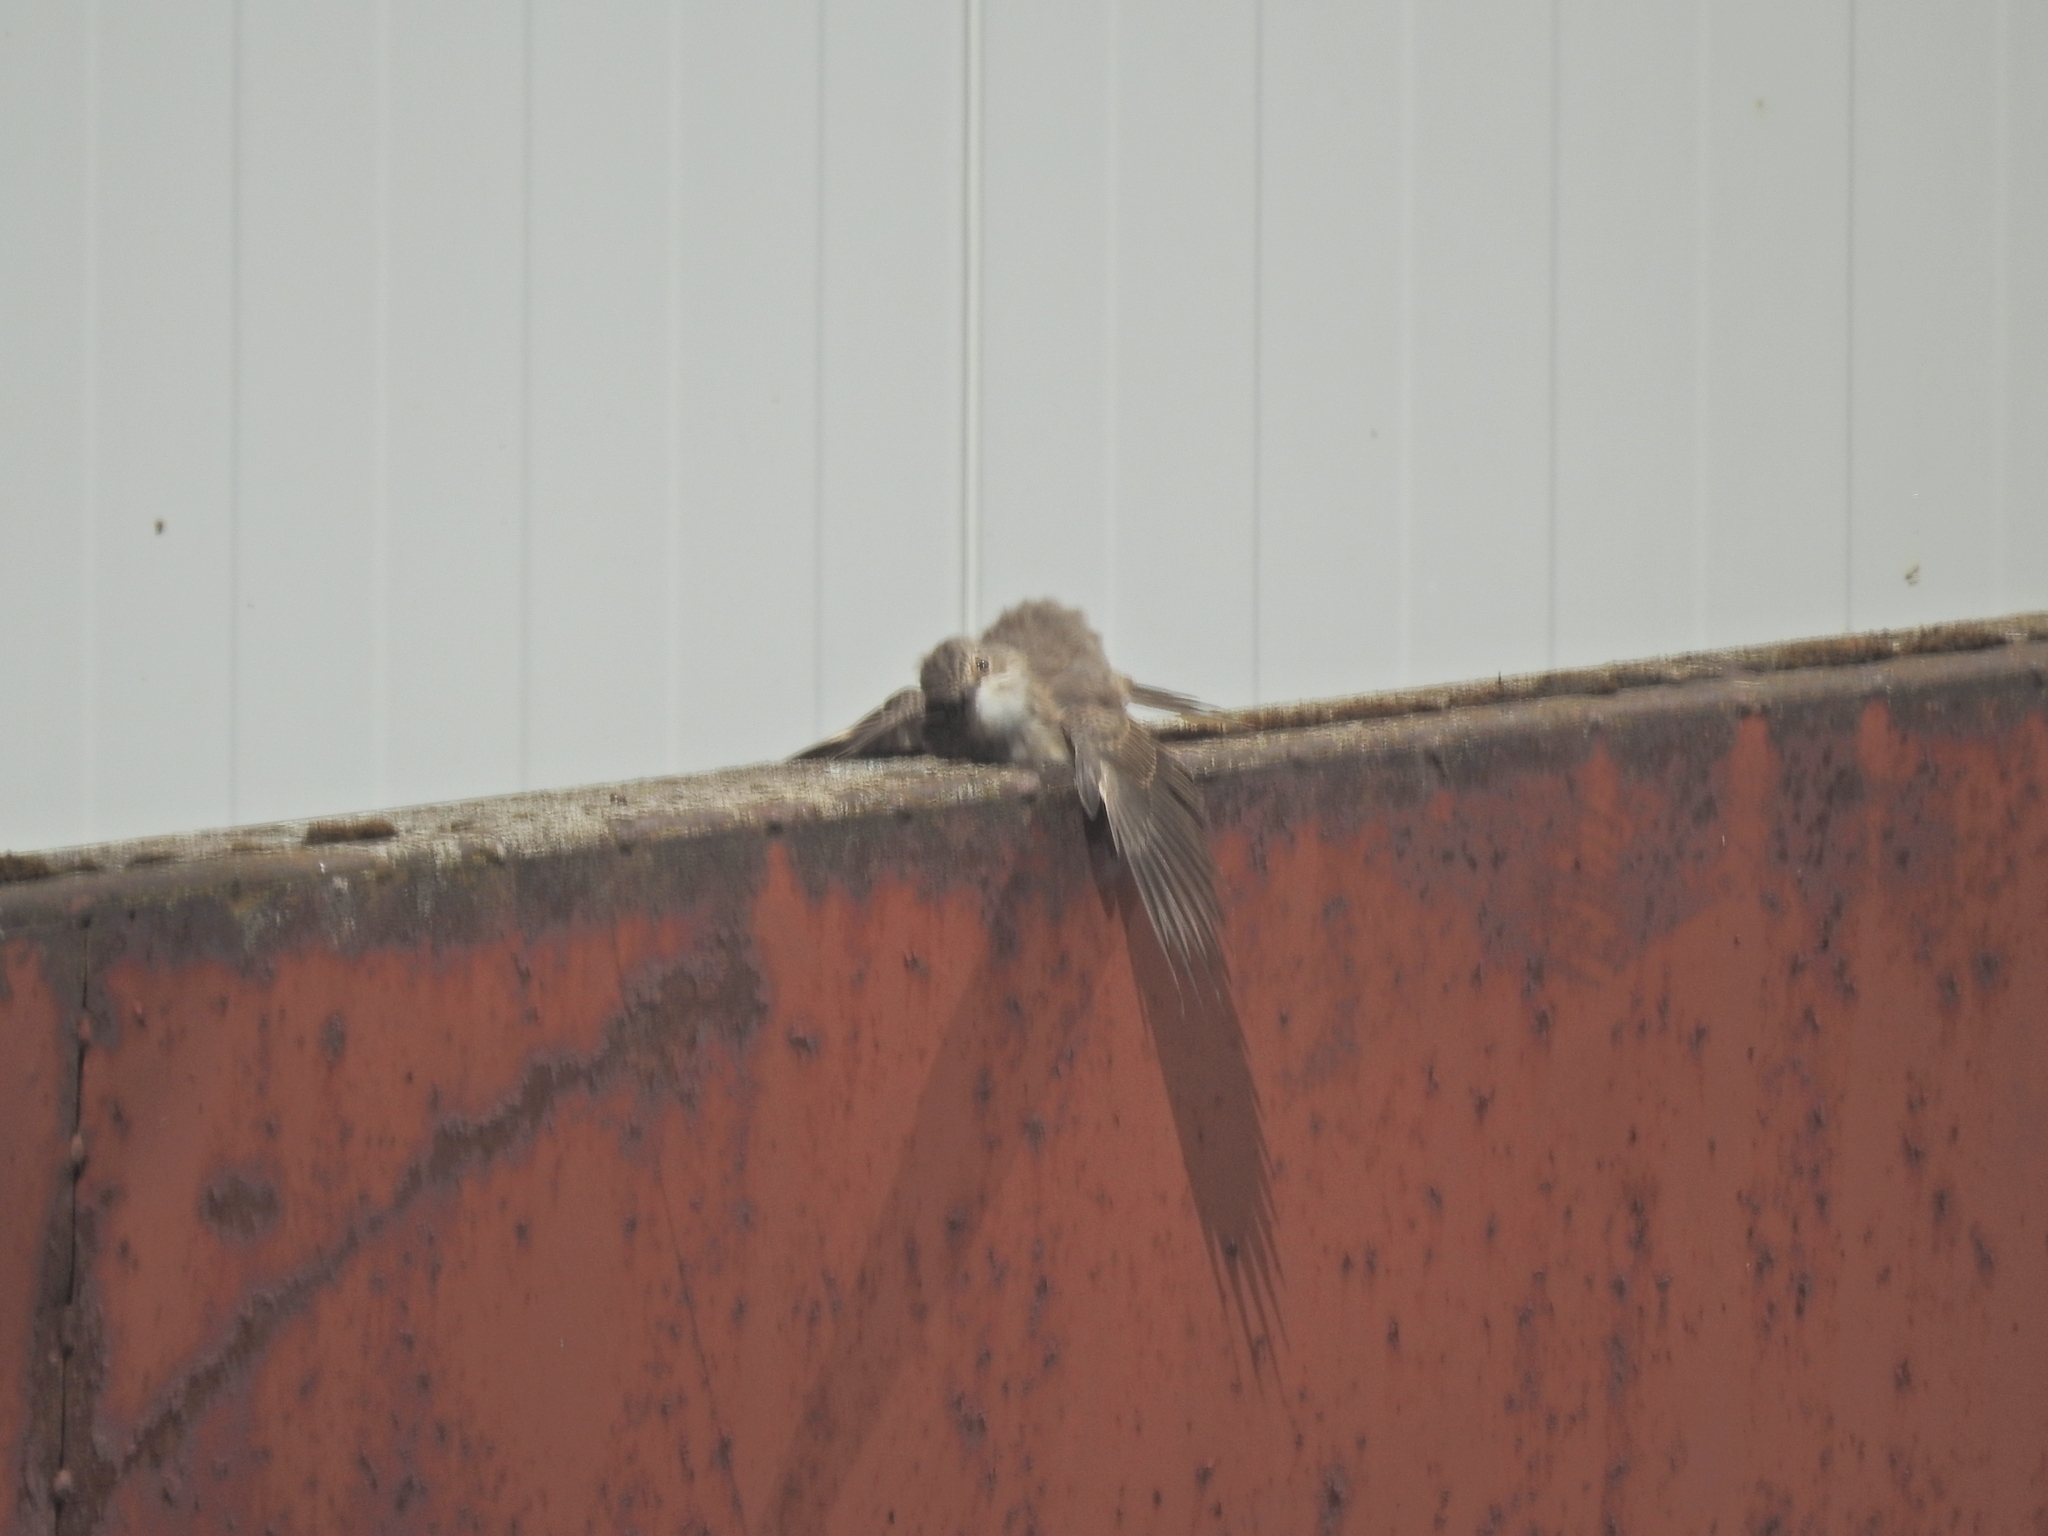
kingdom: Animalia
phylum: Chordata
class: Aves
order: Passeriformes
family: Muscicapidae
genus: Muscicapa
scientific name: Muscicapa striata
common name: Spotted flycatcher
